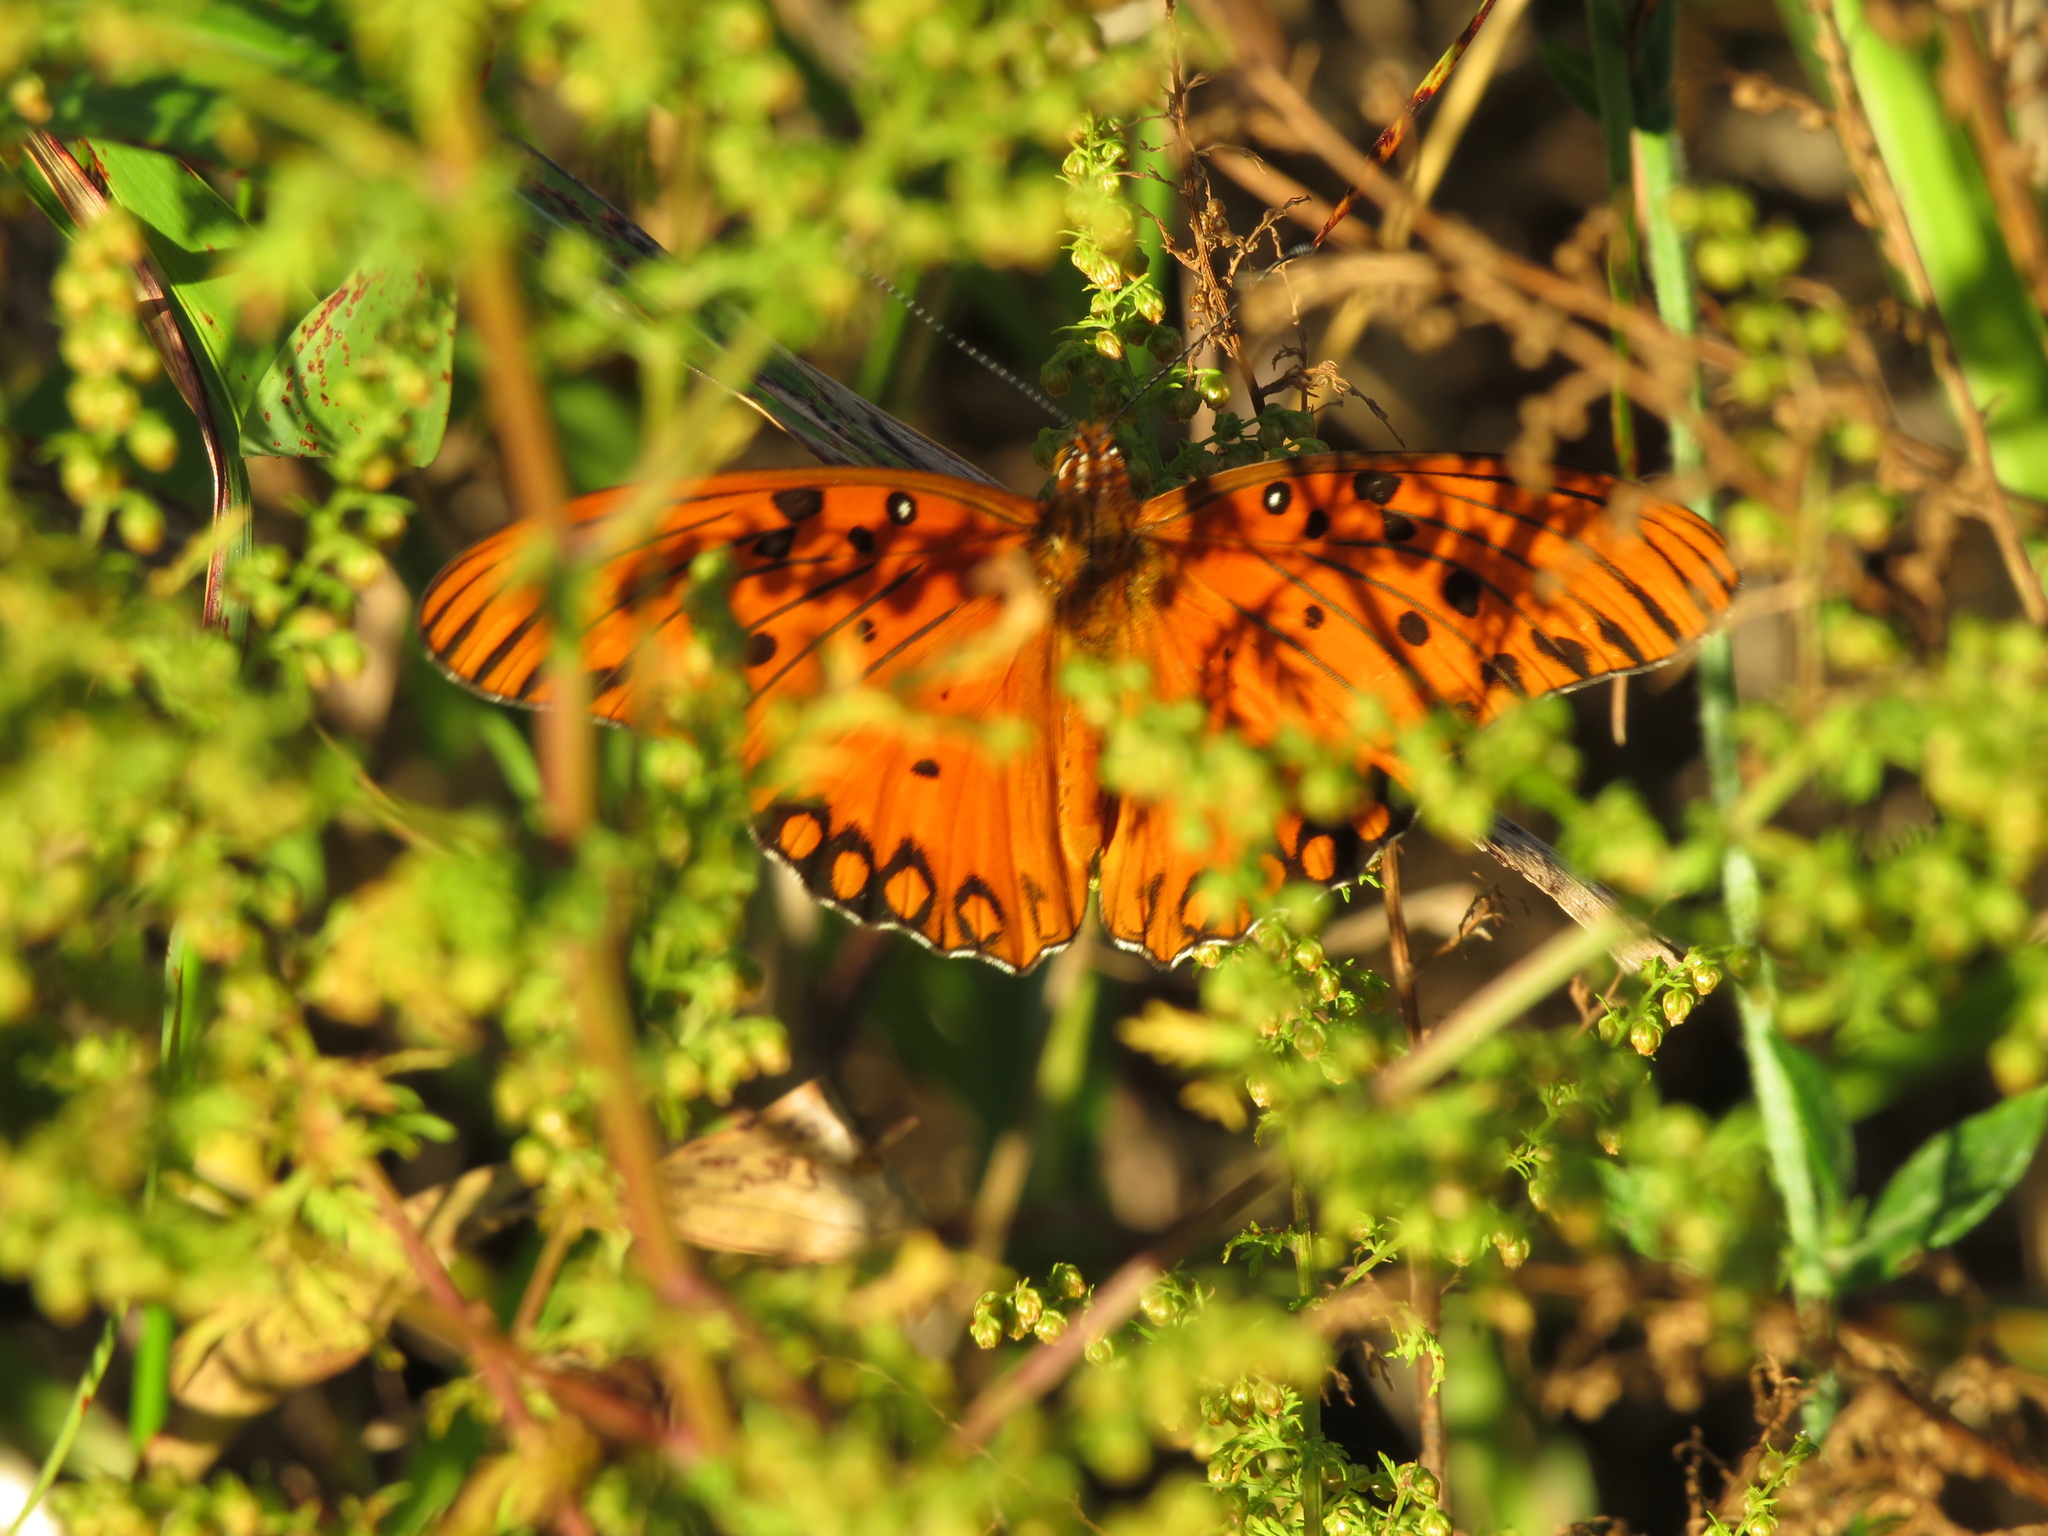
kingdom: Animalia
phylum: Arthropoda
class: Insecta
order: Lepidoptera
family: Nymphalidae
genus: Dione
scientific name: Dione vanillae
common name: Gulf fritillary
